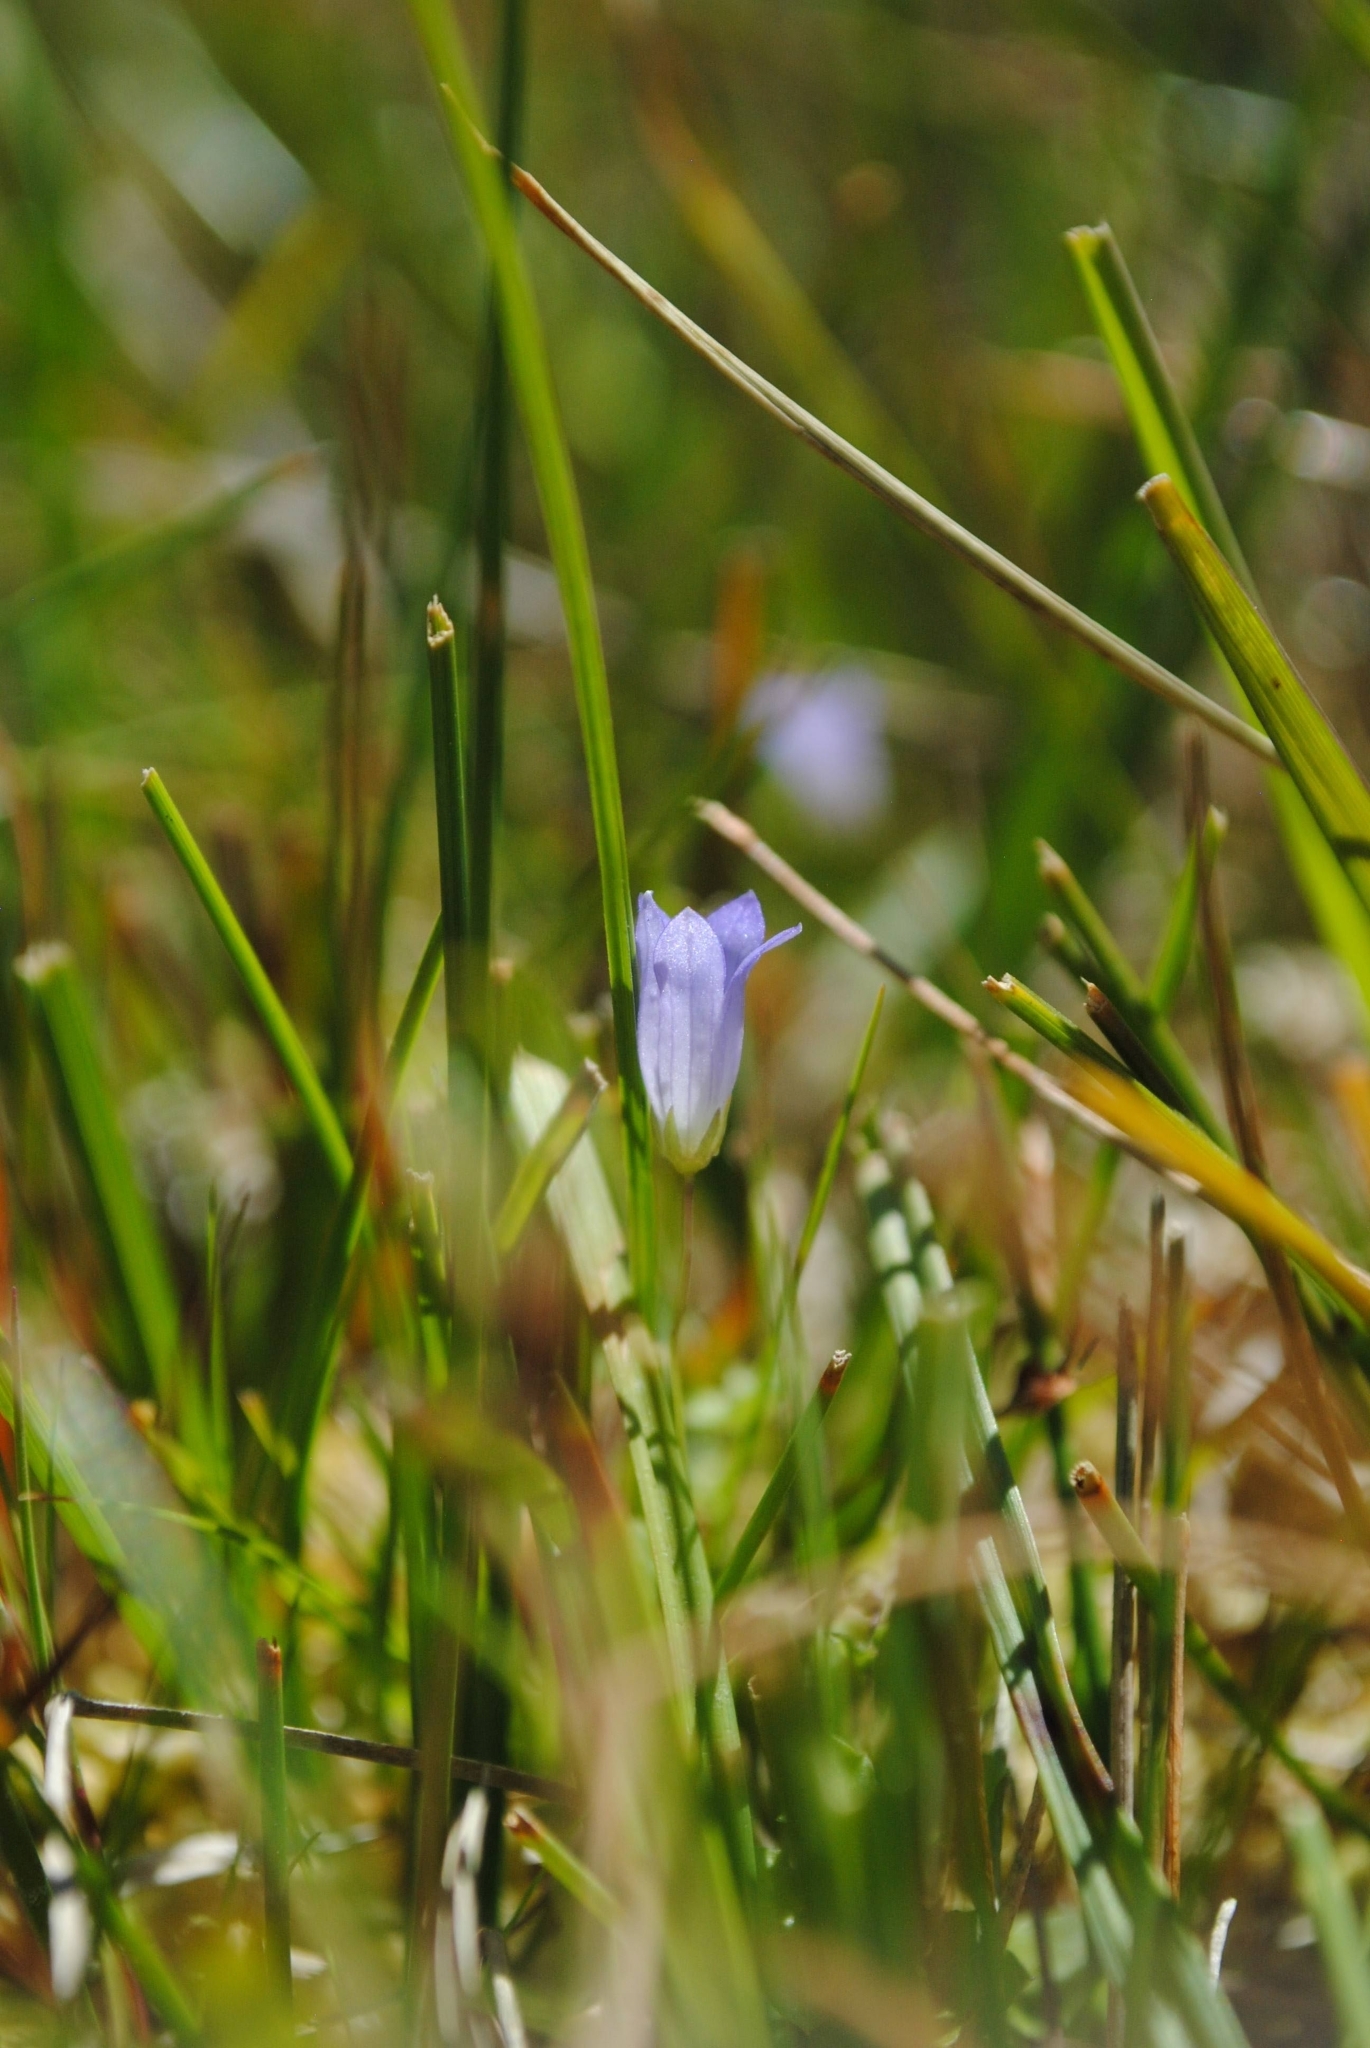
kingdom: Plantae
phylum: Tracheophyta
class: Magnoliopsida
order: Asterales
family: Campanulaceae
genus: Hesperocodon
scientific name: Hesperocodon hederaceus
